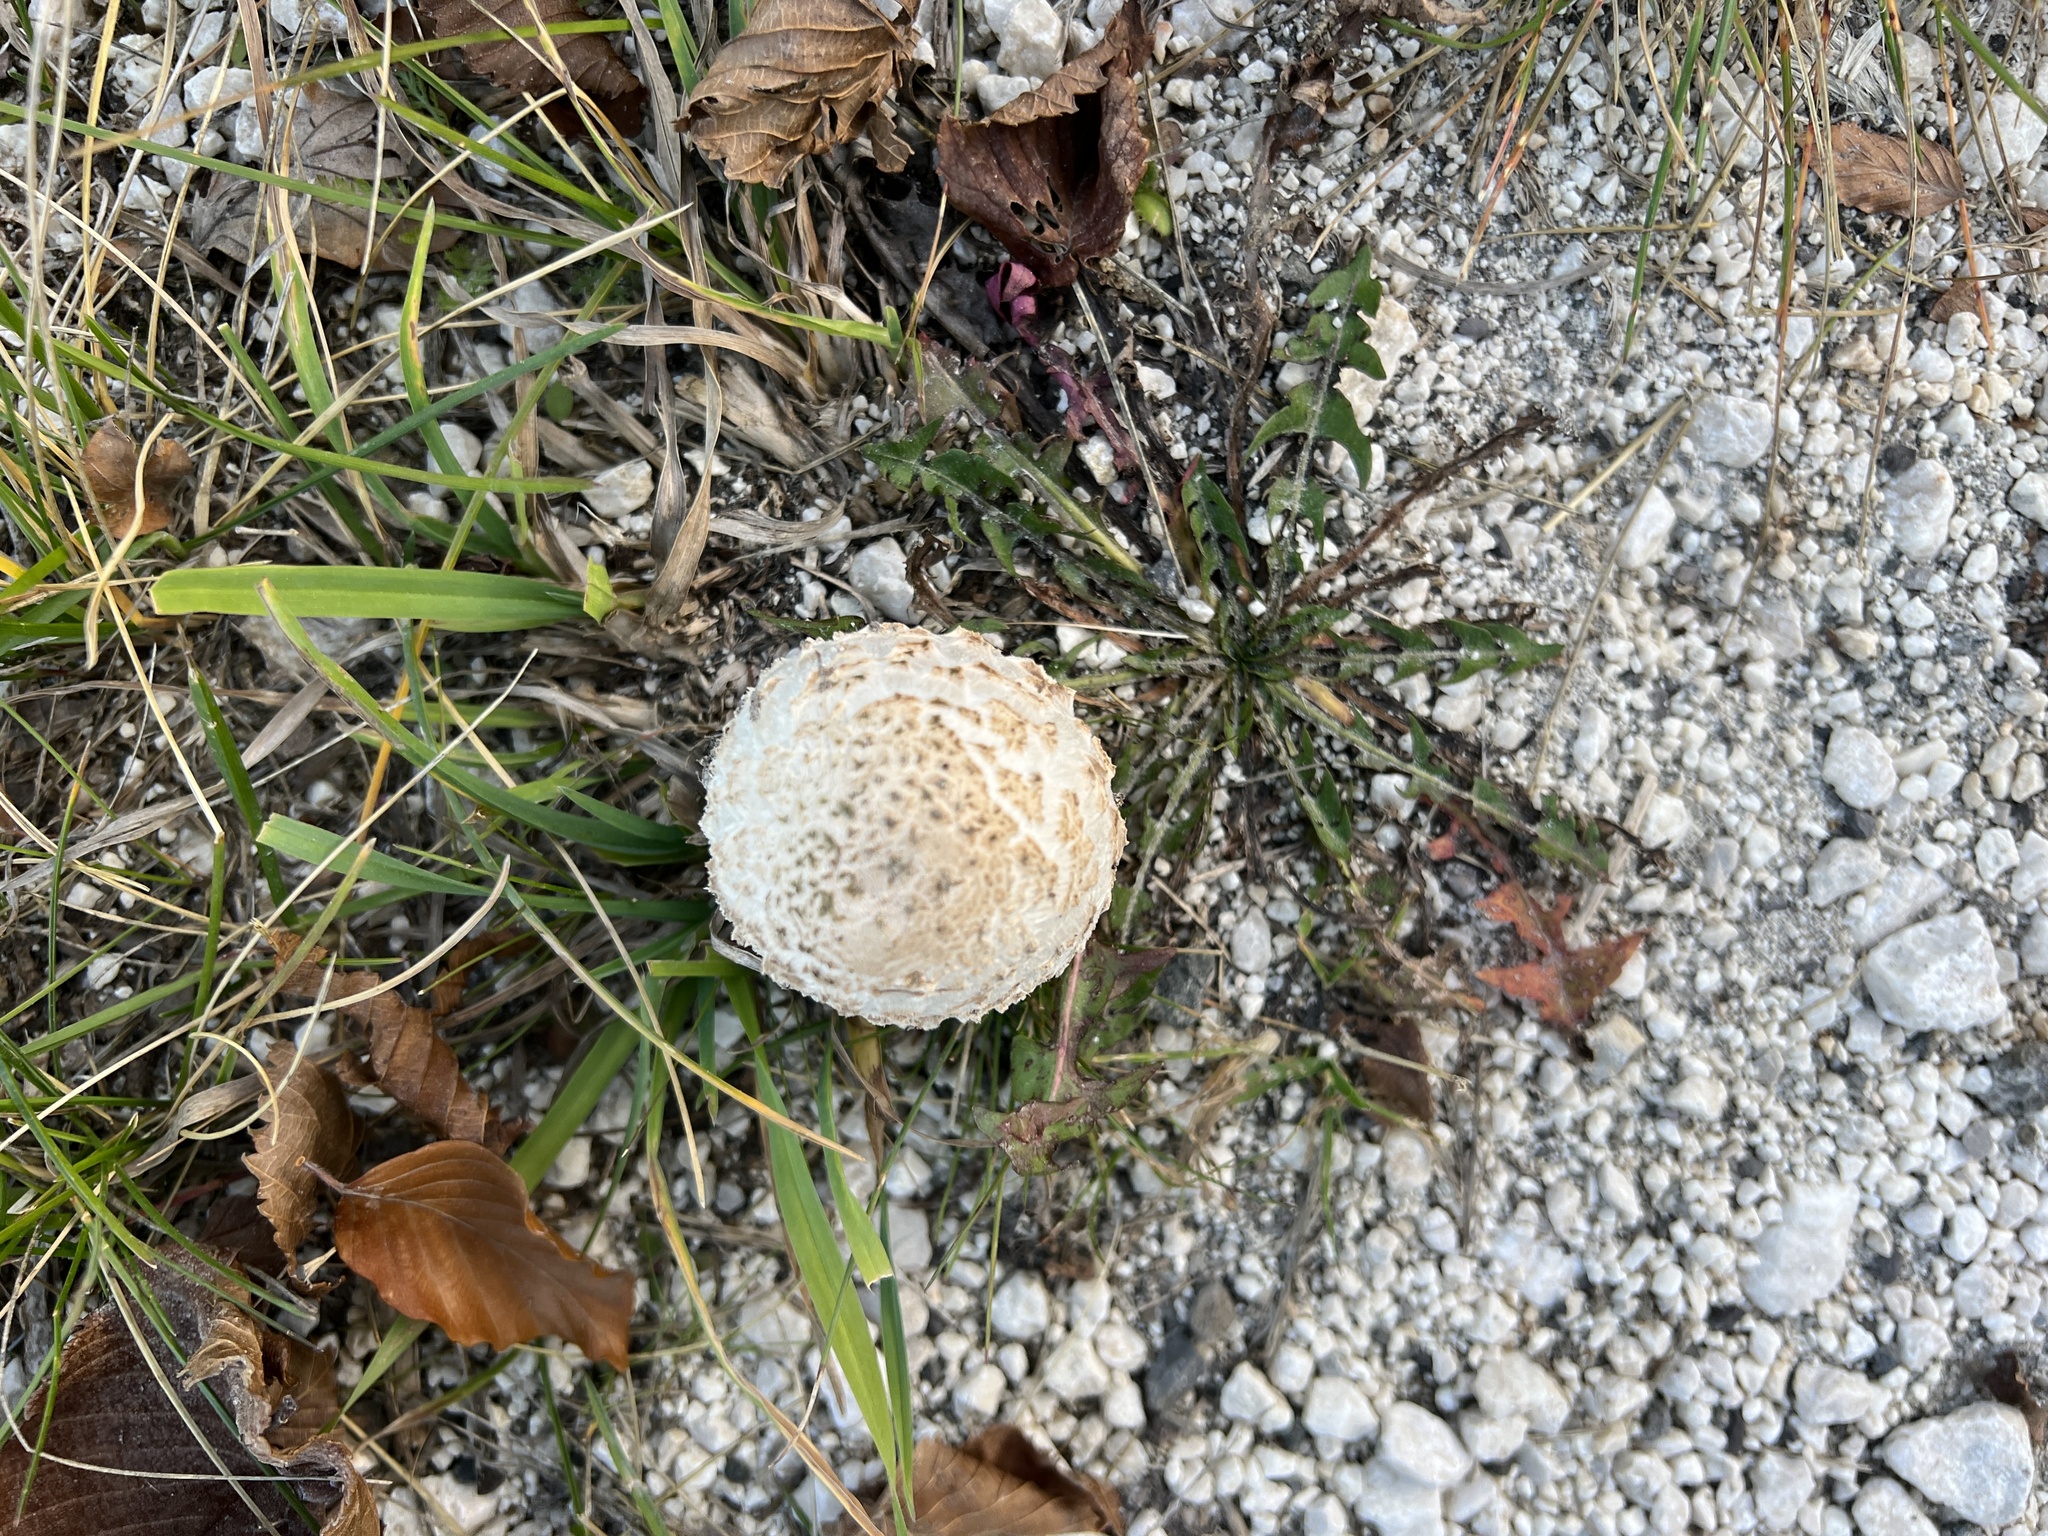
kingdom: Fungi
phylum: Basidiomycota
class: Agaricomycetes
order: Agaricales
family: Agaricaceae
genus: Coprinus
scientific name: Coprinus comatus
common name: Lawyer's wig
